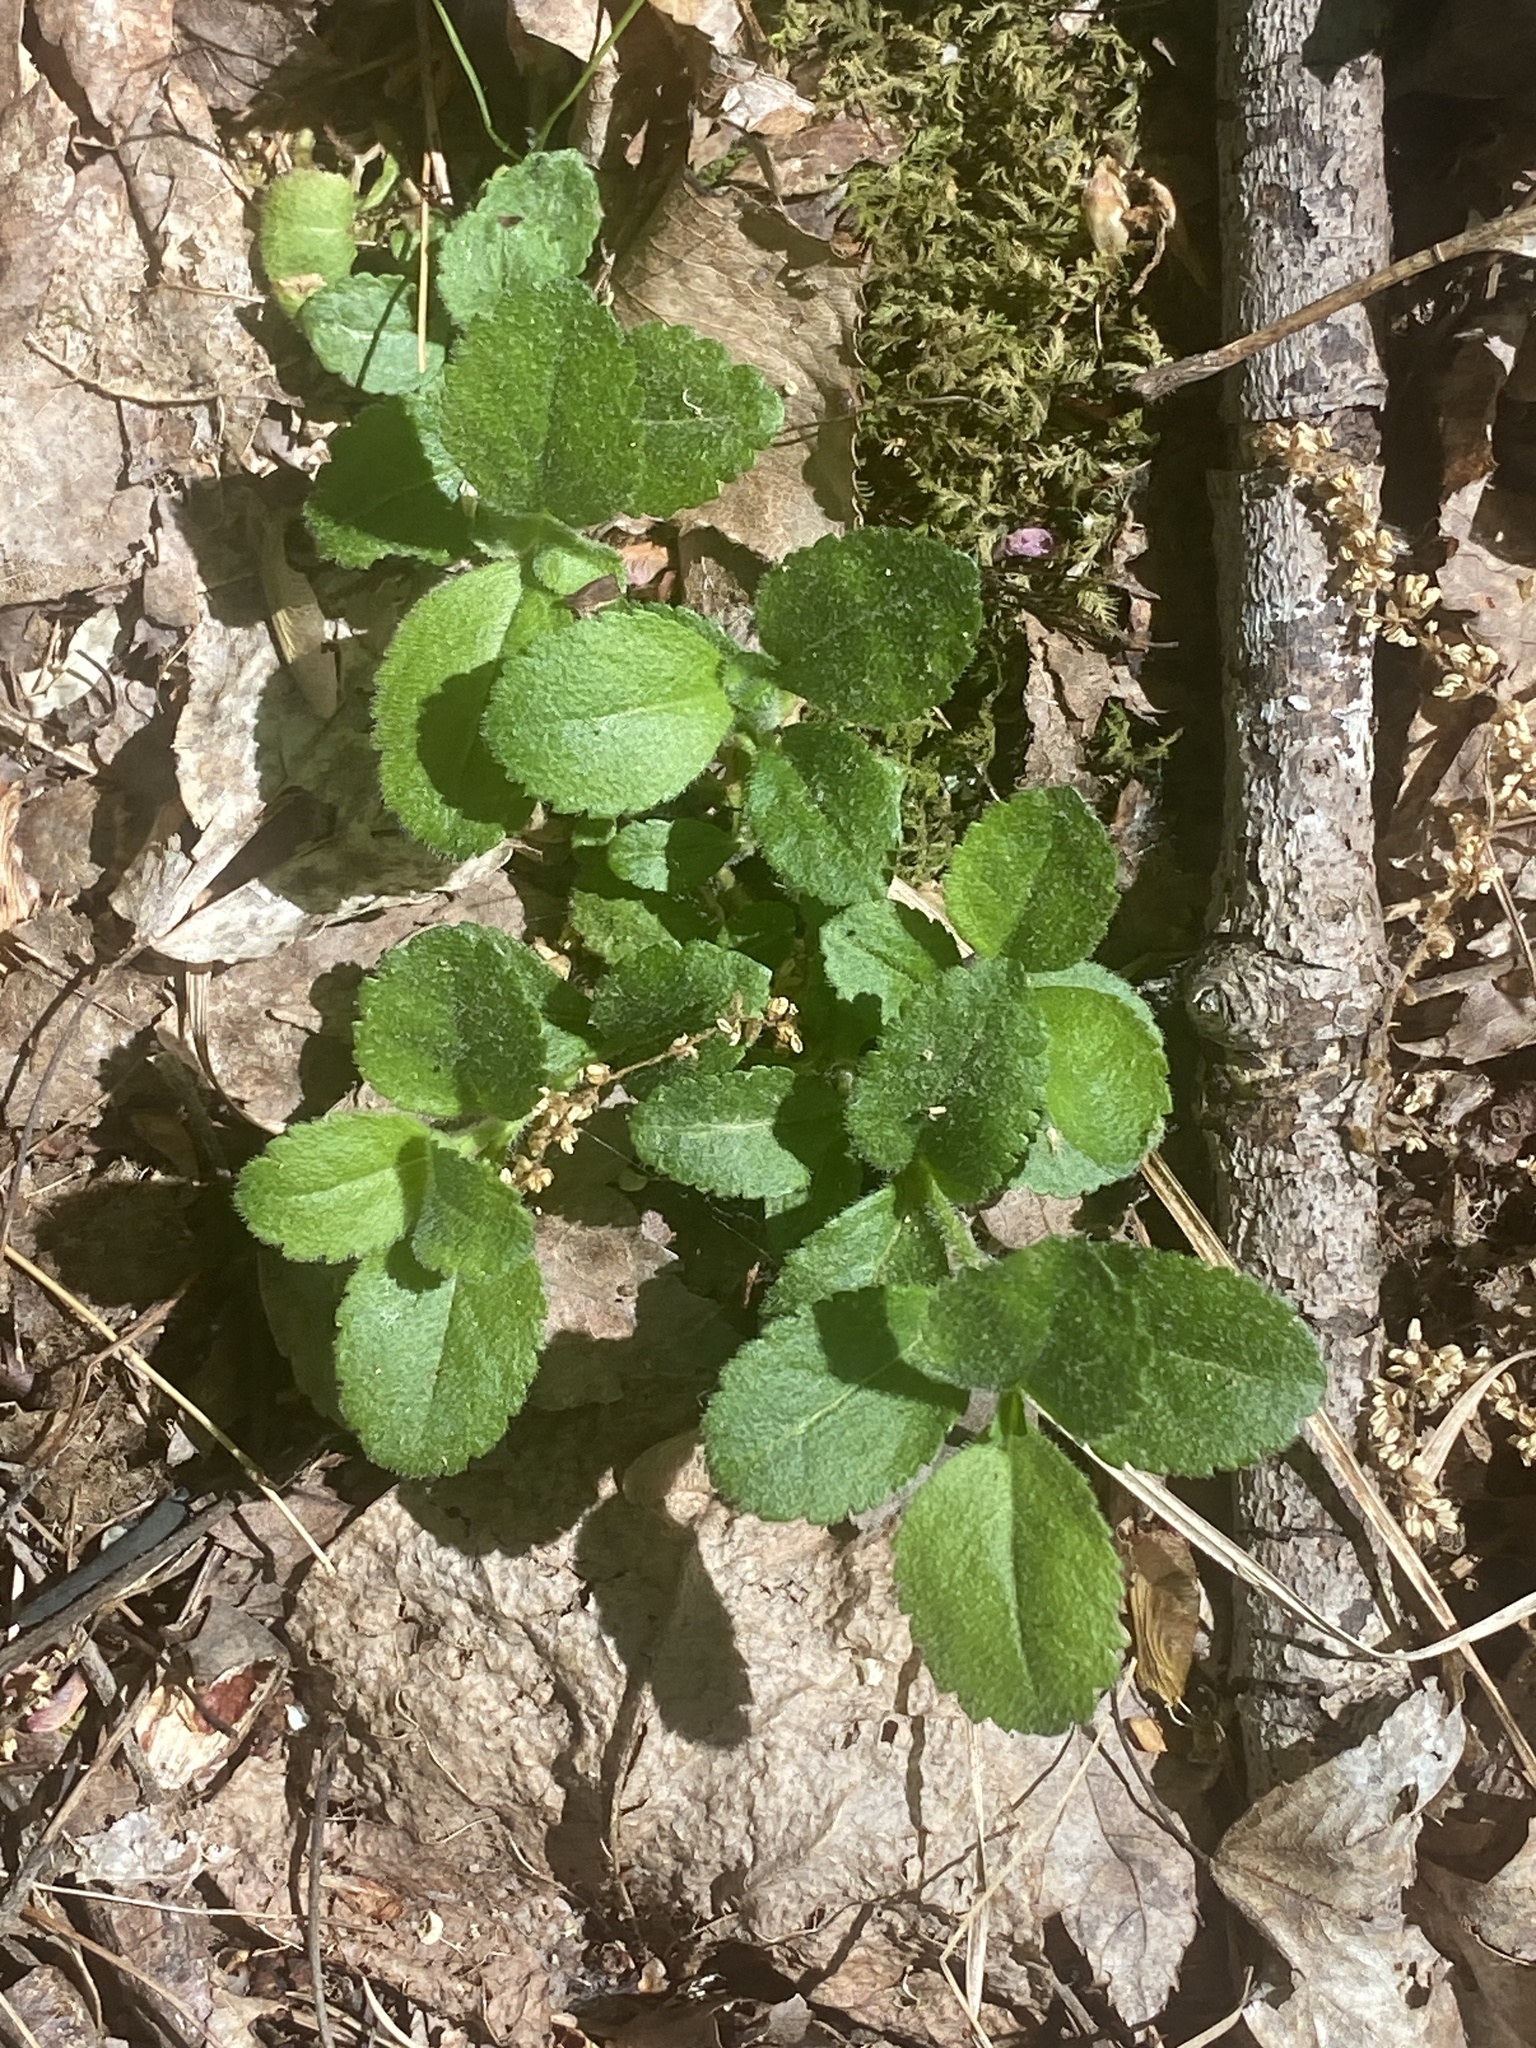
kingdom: Plantae
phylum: Tracheophyta
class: Magnoliopsida
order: Lamiales
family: Plantaginaceae
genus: Veronica
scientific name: Veronica officinalis
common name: Common speedwell
